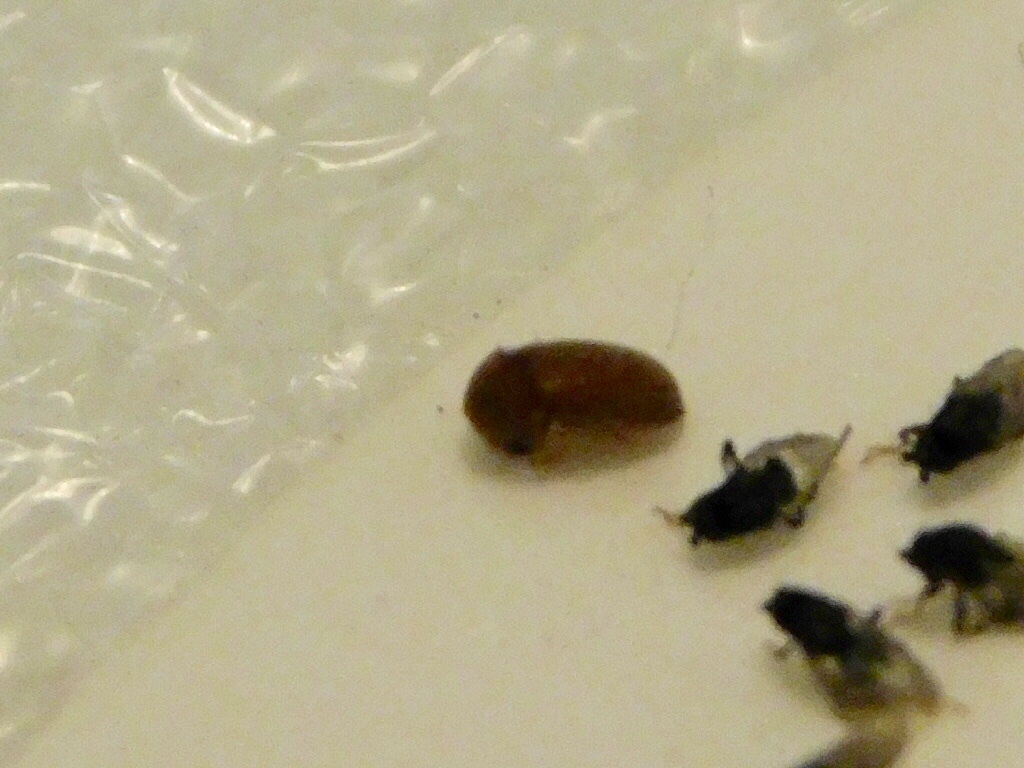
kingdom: Animalia
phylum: Arthropoda
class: Insecta
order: Coleoptera
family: Anobiidae
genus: Lasioderma
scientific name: Lasioderma serricorne
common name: Cigarette beetle
